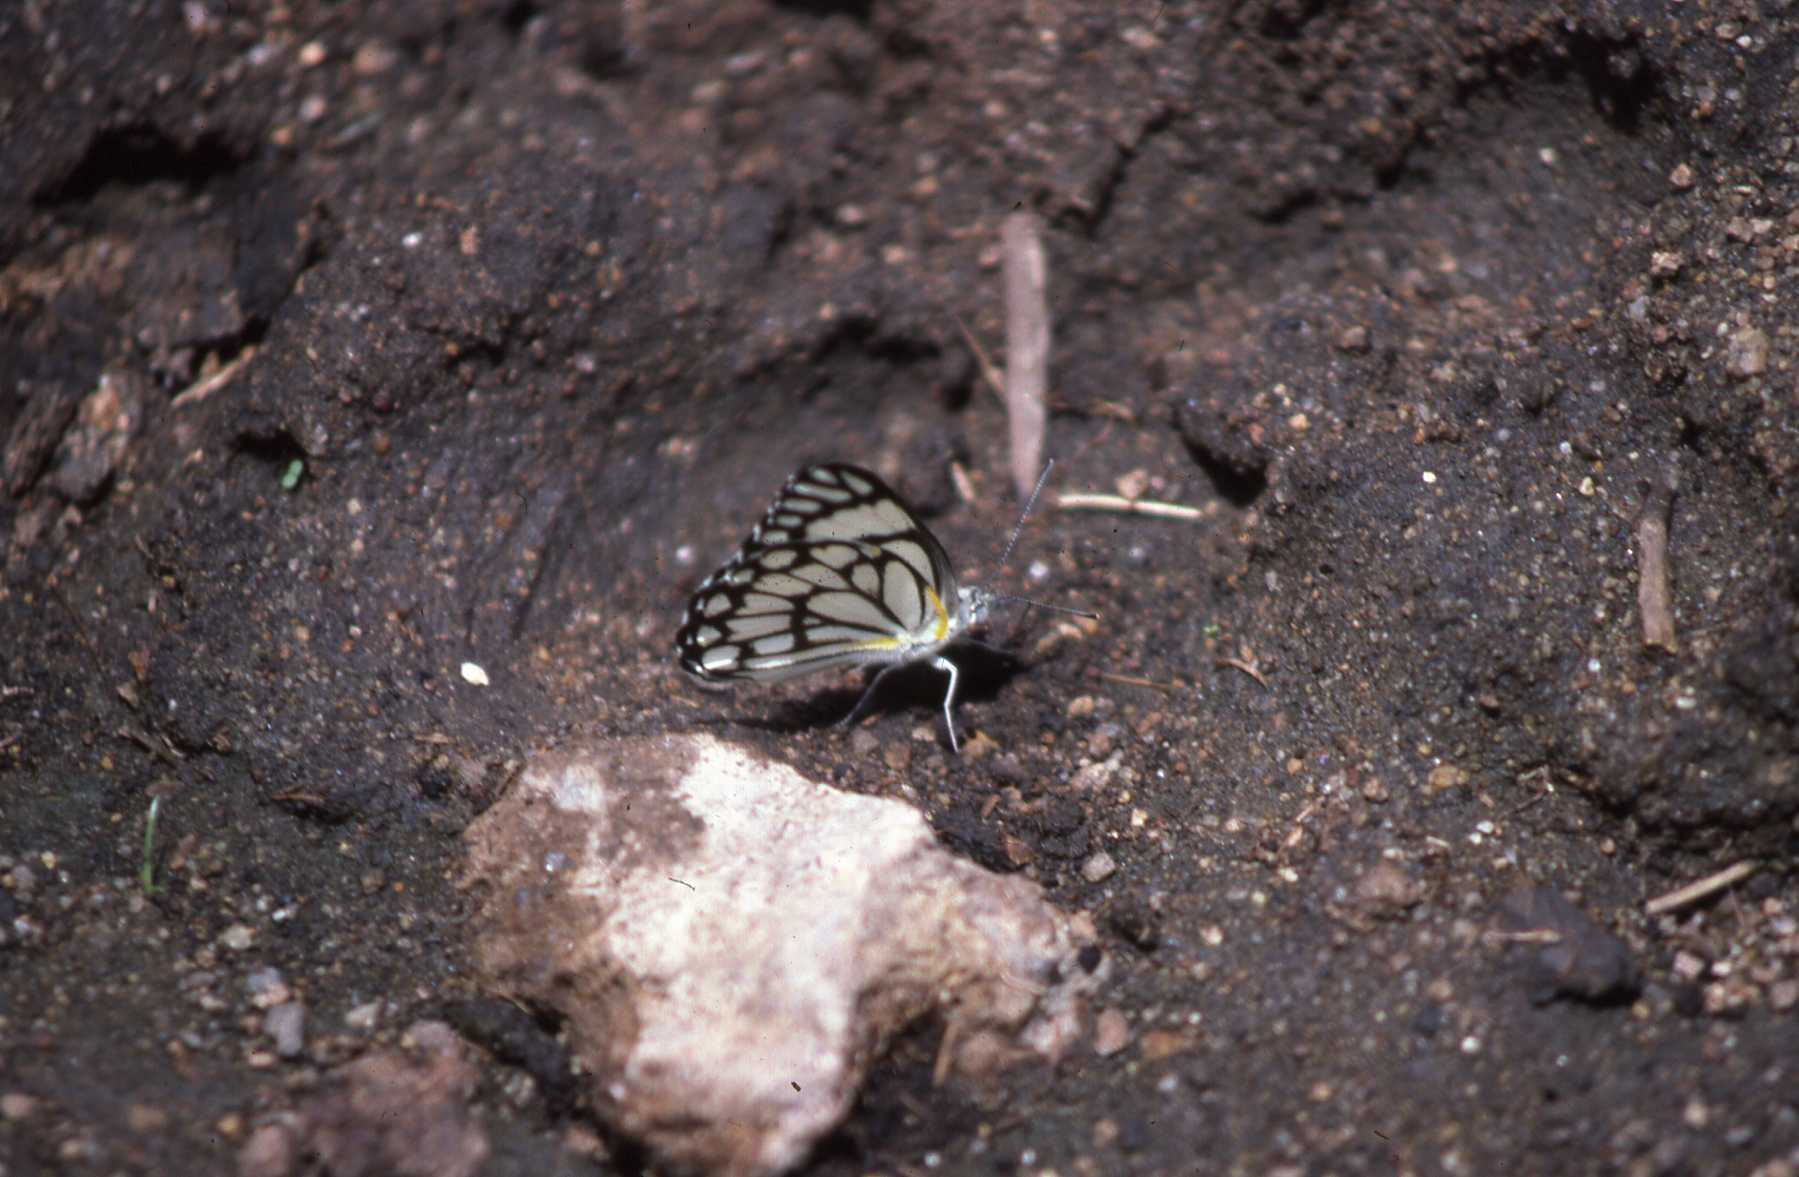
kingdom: Animalia
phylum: Arthropoda
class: Insecta
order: Lepidoptera
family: Pieridae
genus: Belenois
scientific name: Belenois aurota
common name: Brown-veined white
